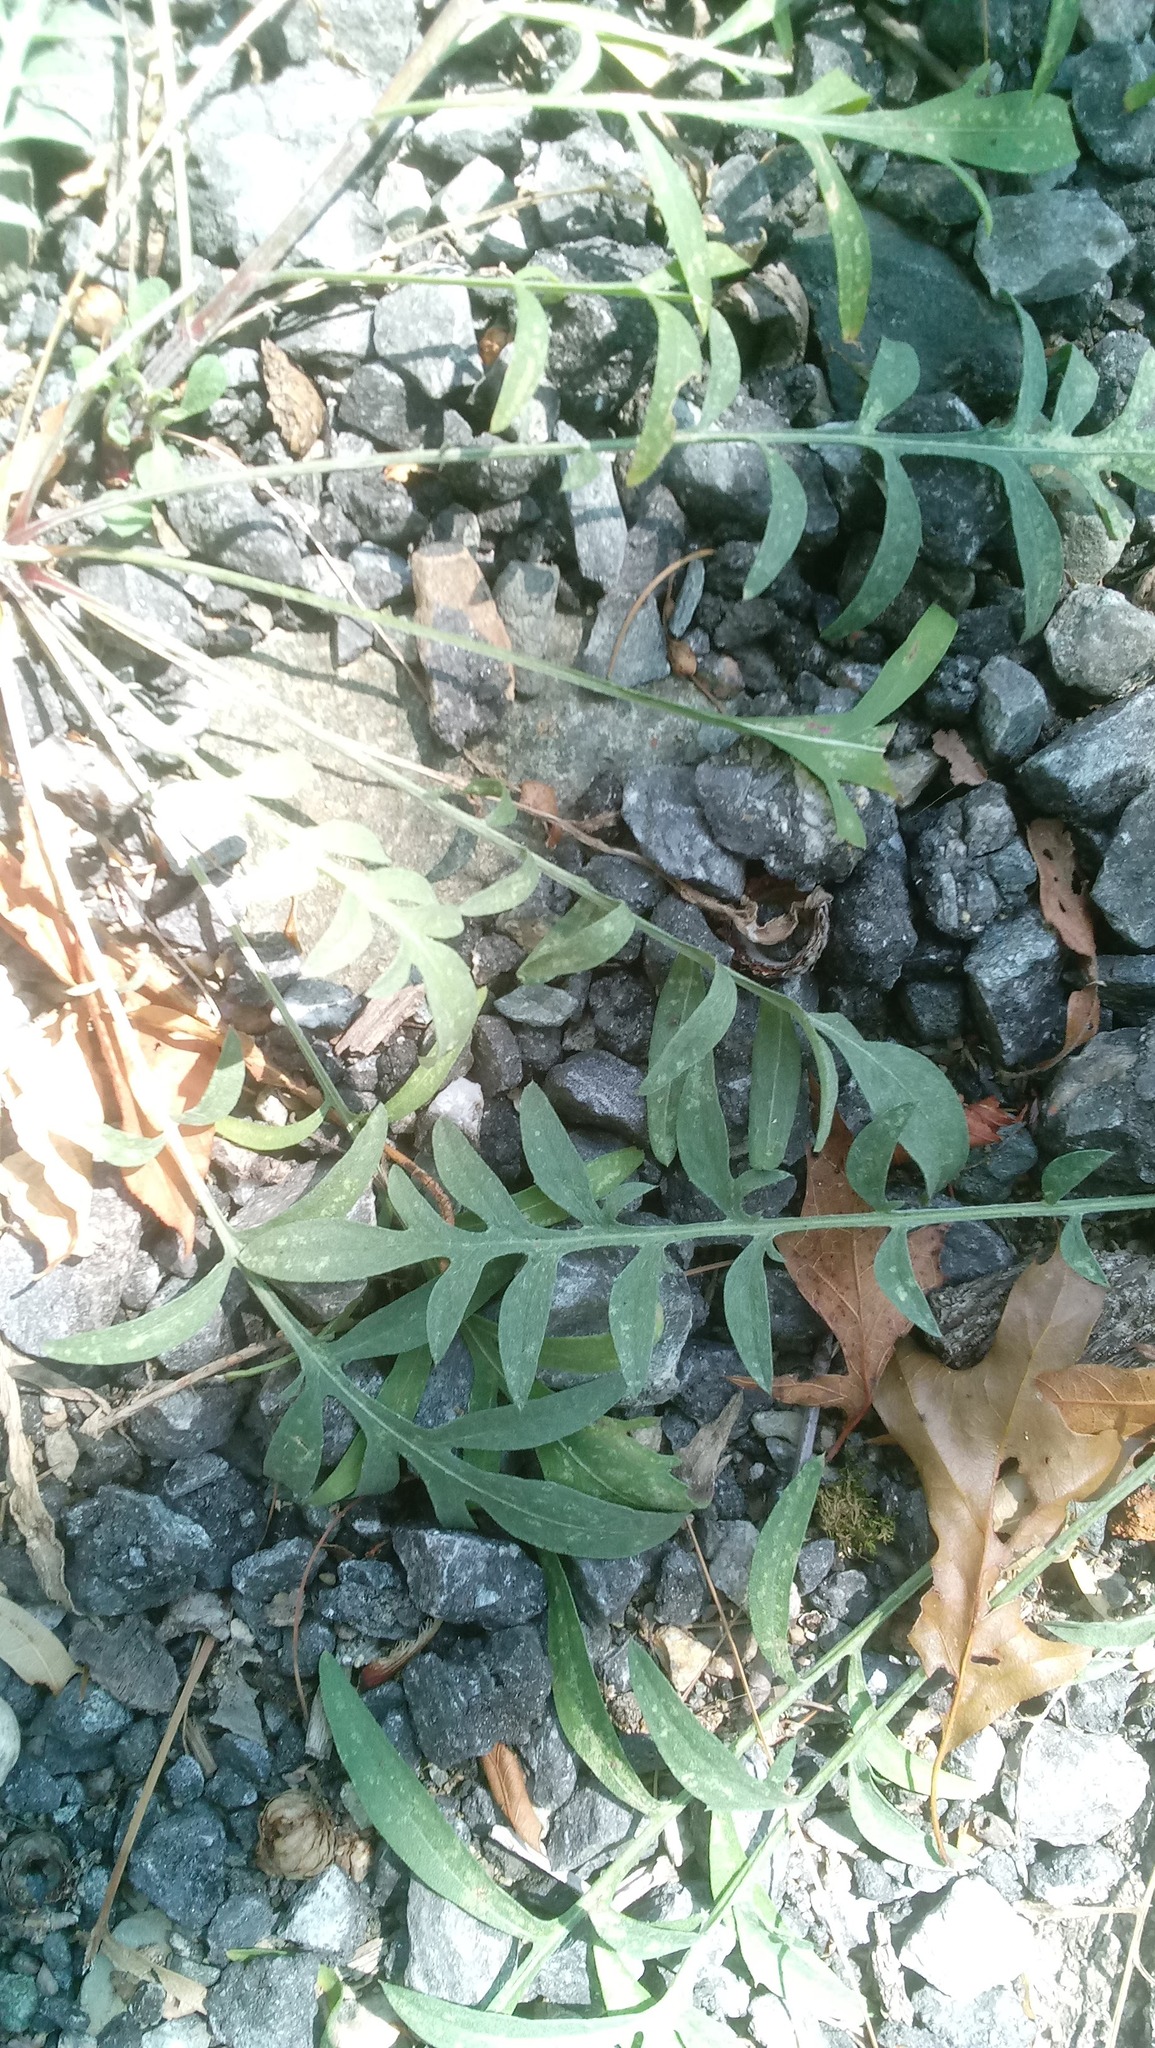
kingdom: Plantae
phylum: Tracheophyta
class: Magnoliopsida
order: Asterales
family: Asteraceae
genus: Centaurea
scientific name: Centaurea stoebe
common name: Spotted knapweed
